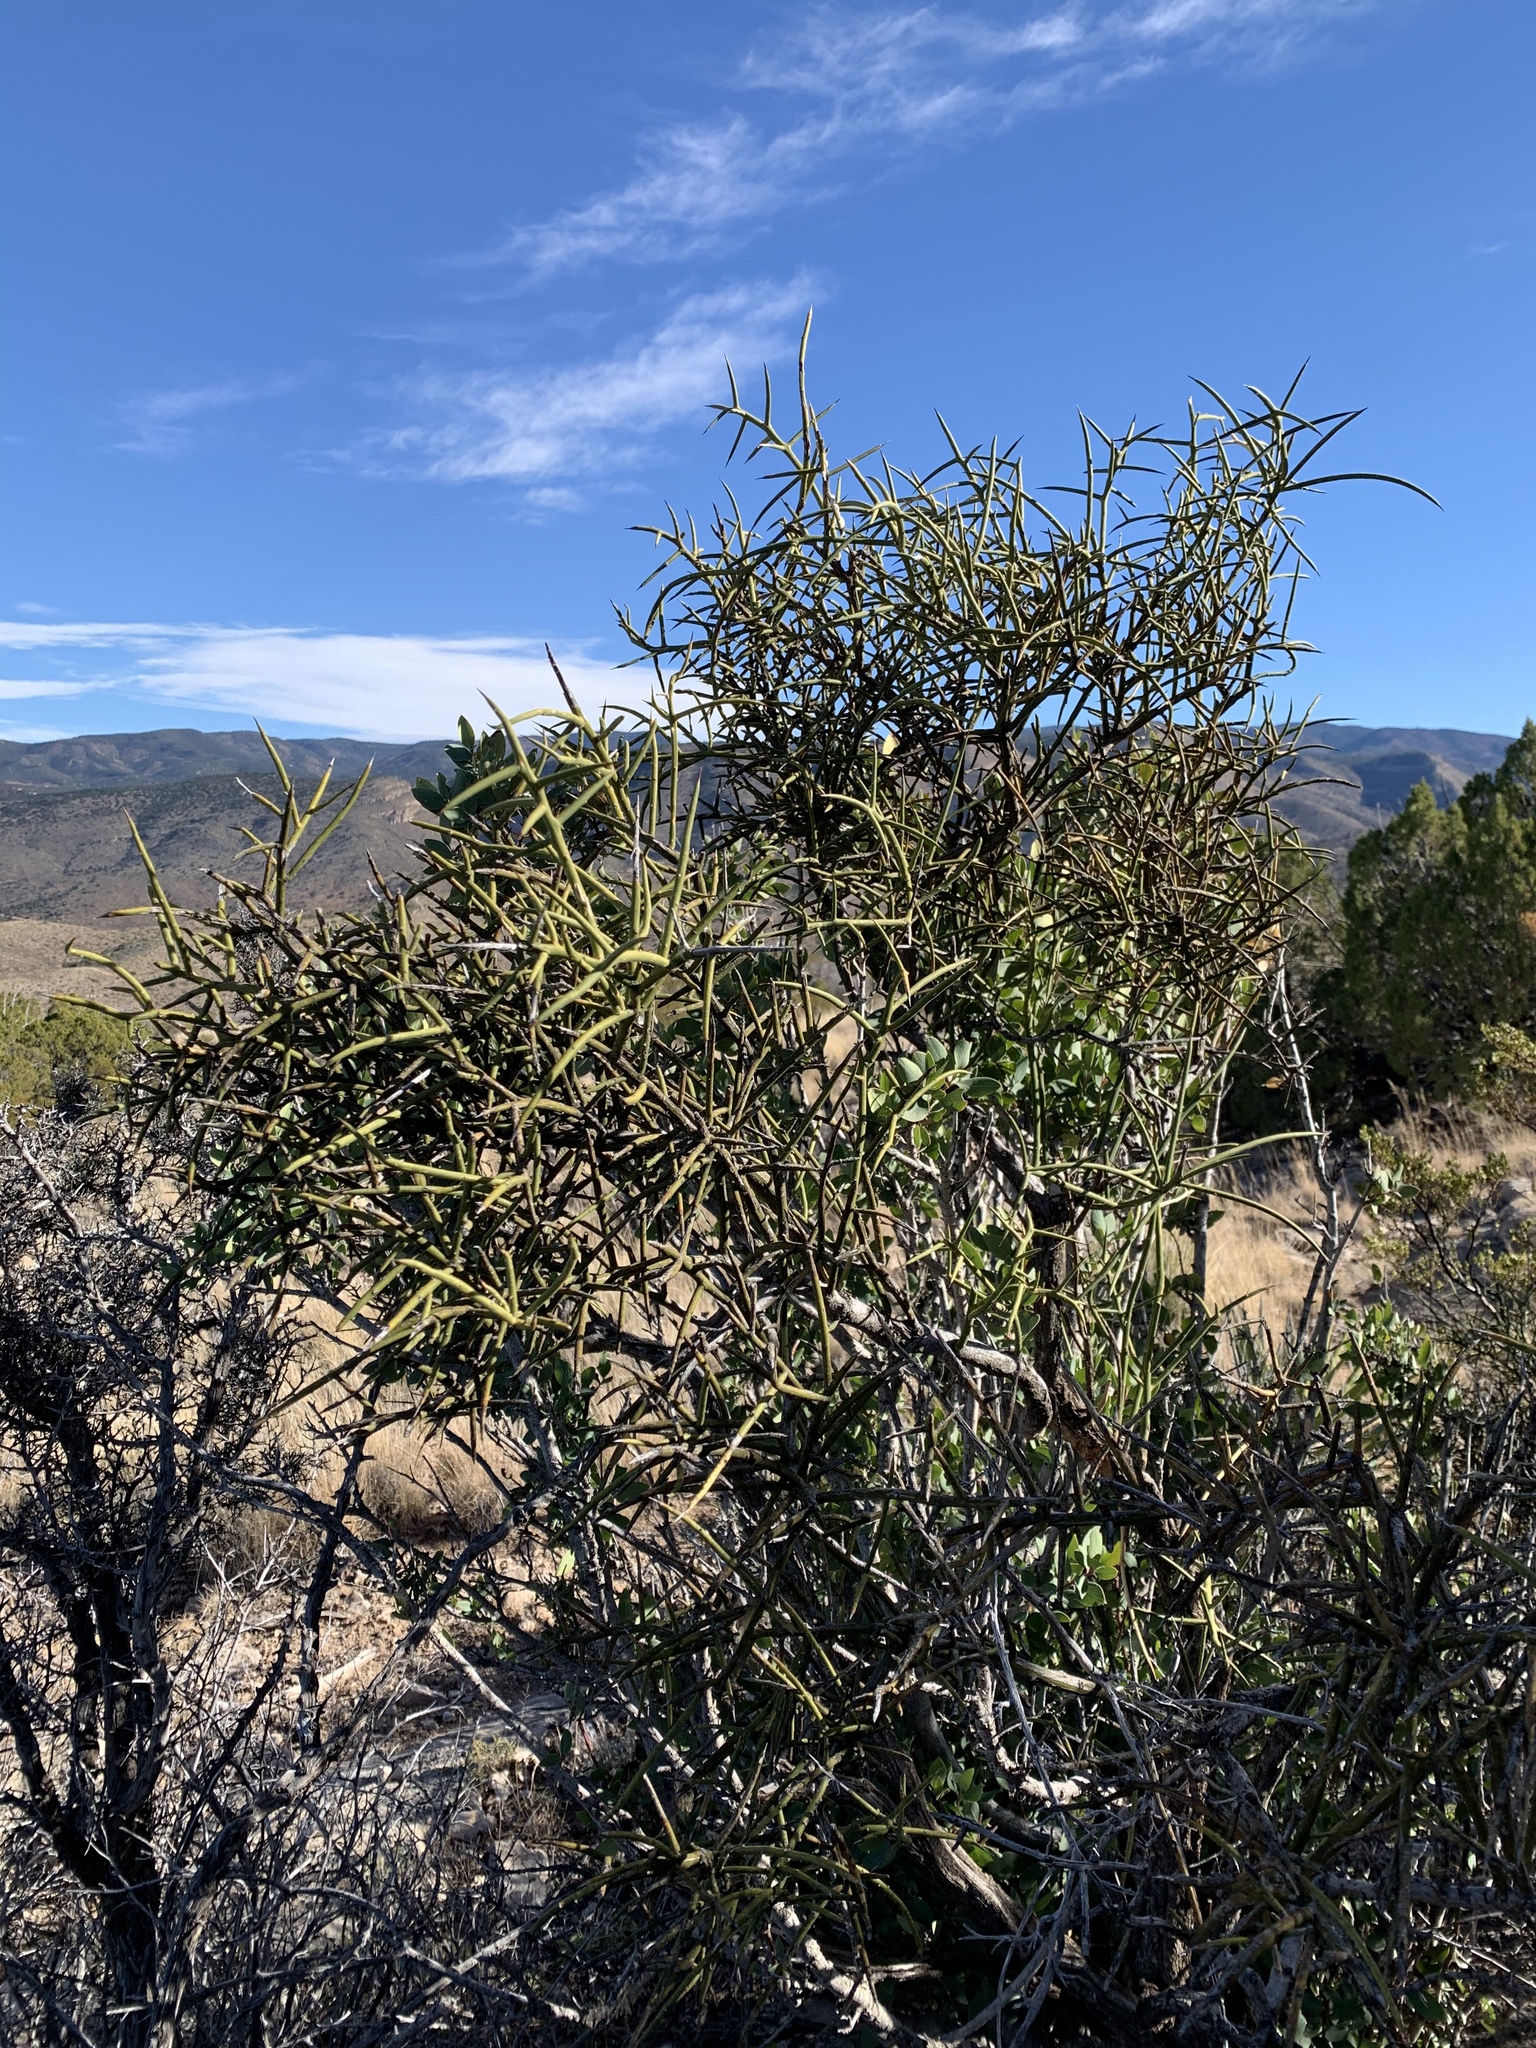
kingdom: Plantae
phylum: Tracheophyta
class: Magnoliopsida
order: Brassicales
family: Koeberliniaceae
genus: Koeberlinia
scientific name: Koeberlinia spinosa
